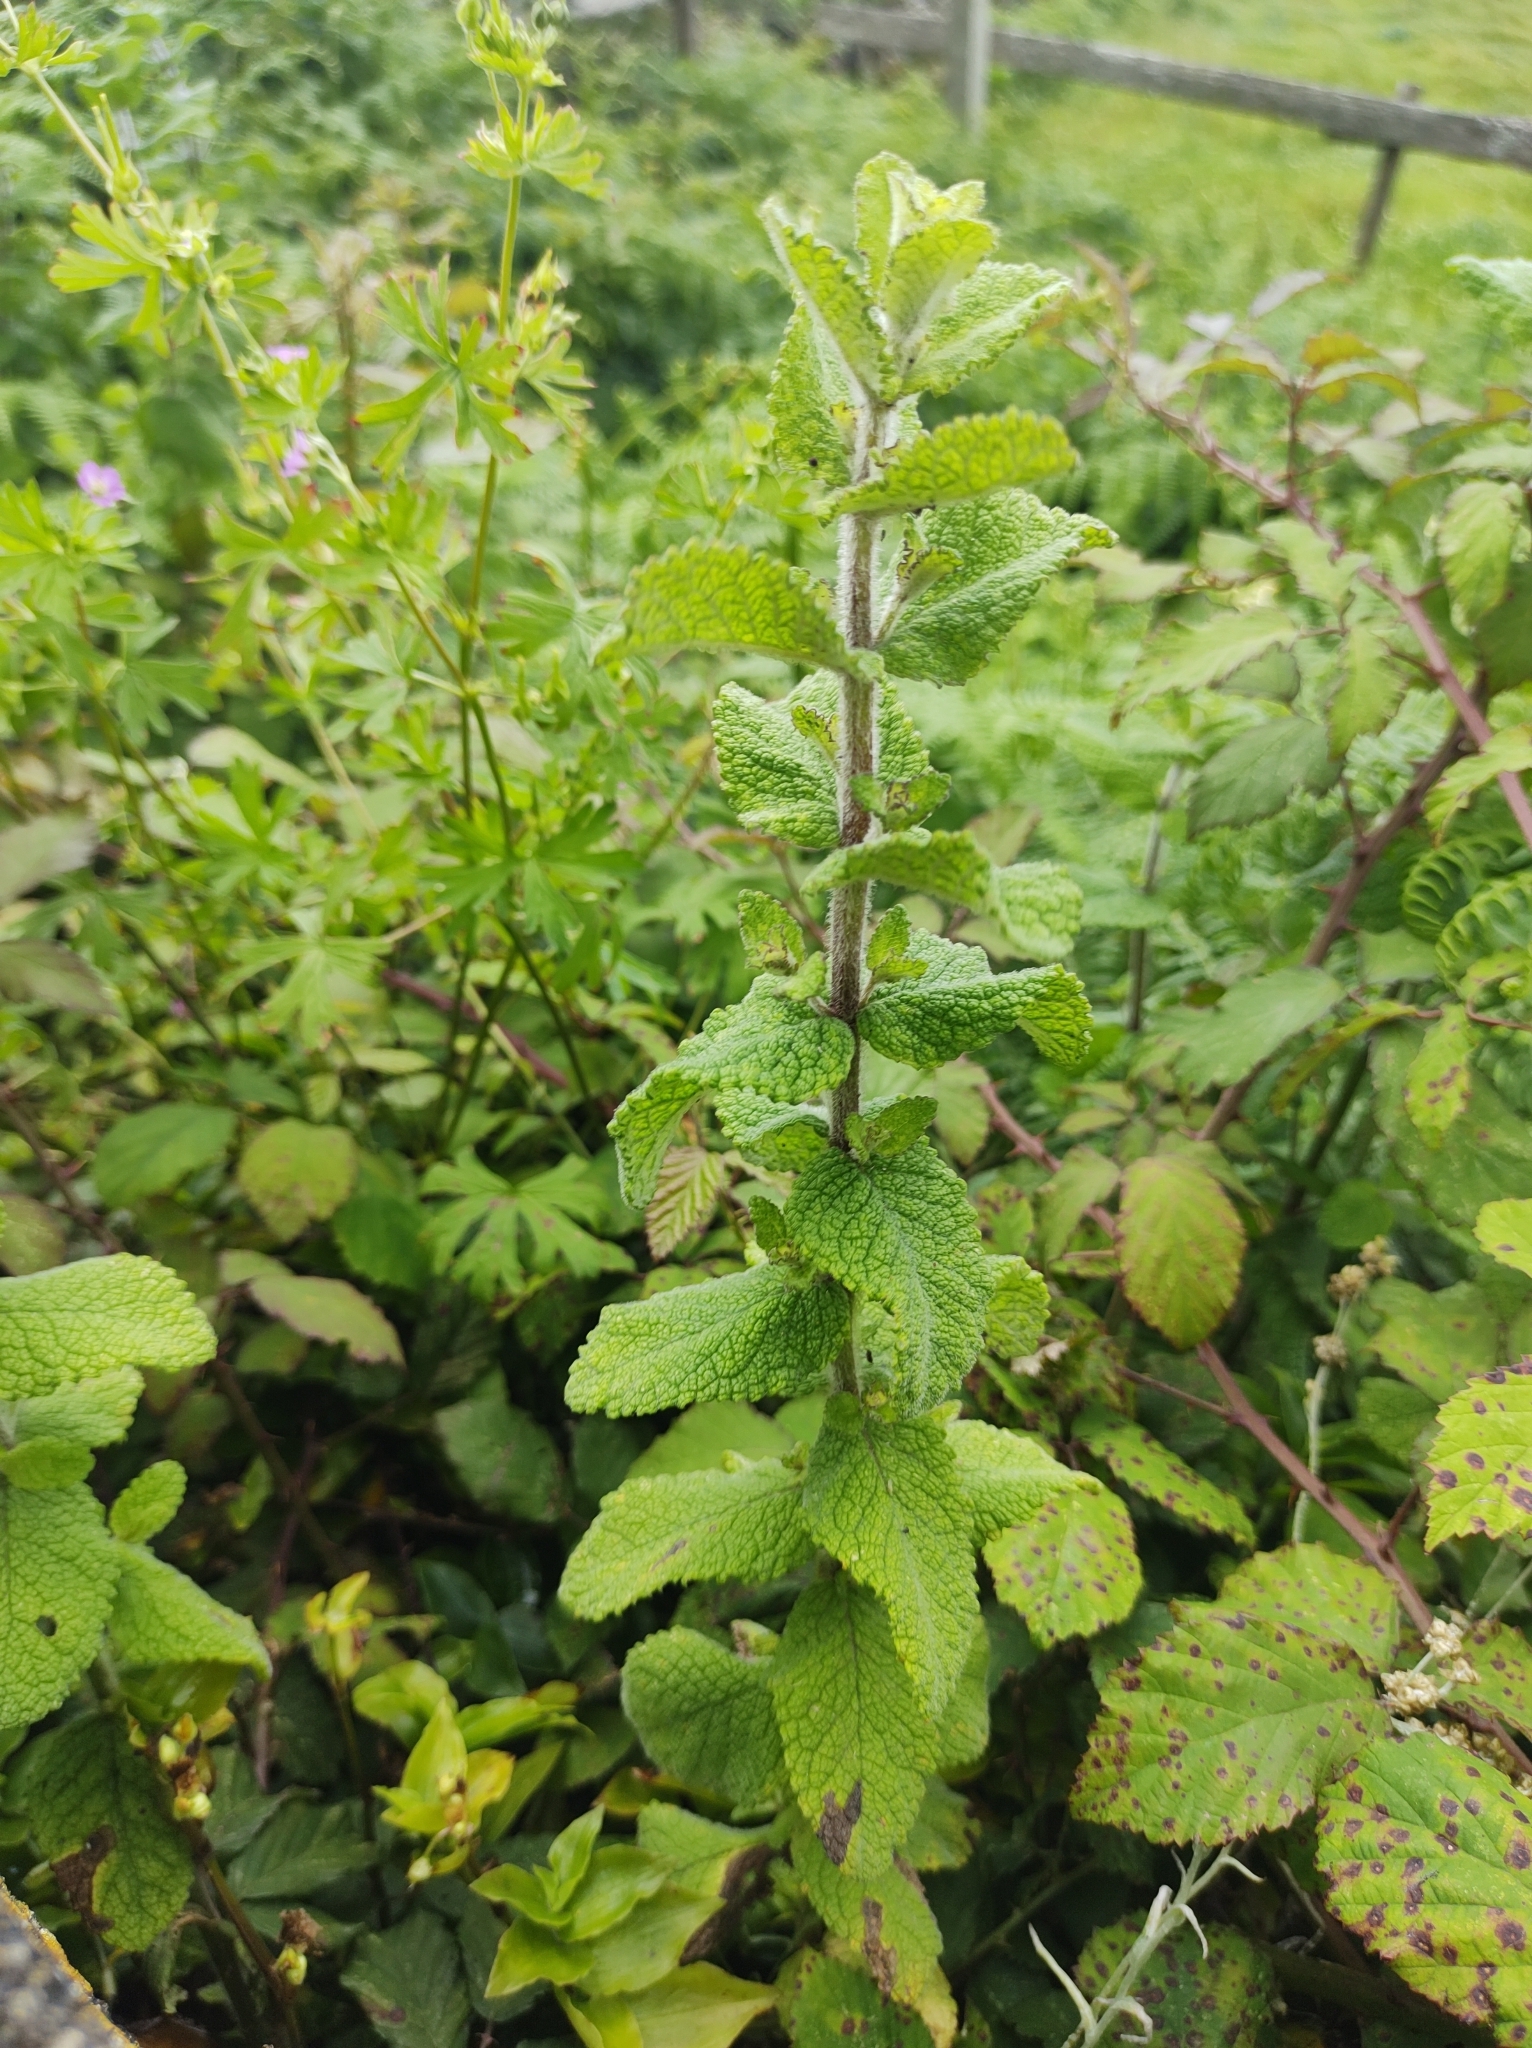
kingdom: Plantae
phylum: Tracheophyta
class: Magnoliopsida
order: Lamiales
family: Lamiaceae
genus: Mentha
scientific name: Mentha suaveolens
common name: Apple mint
